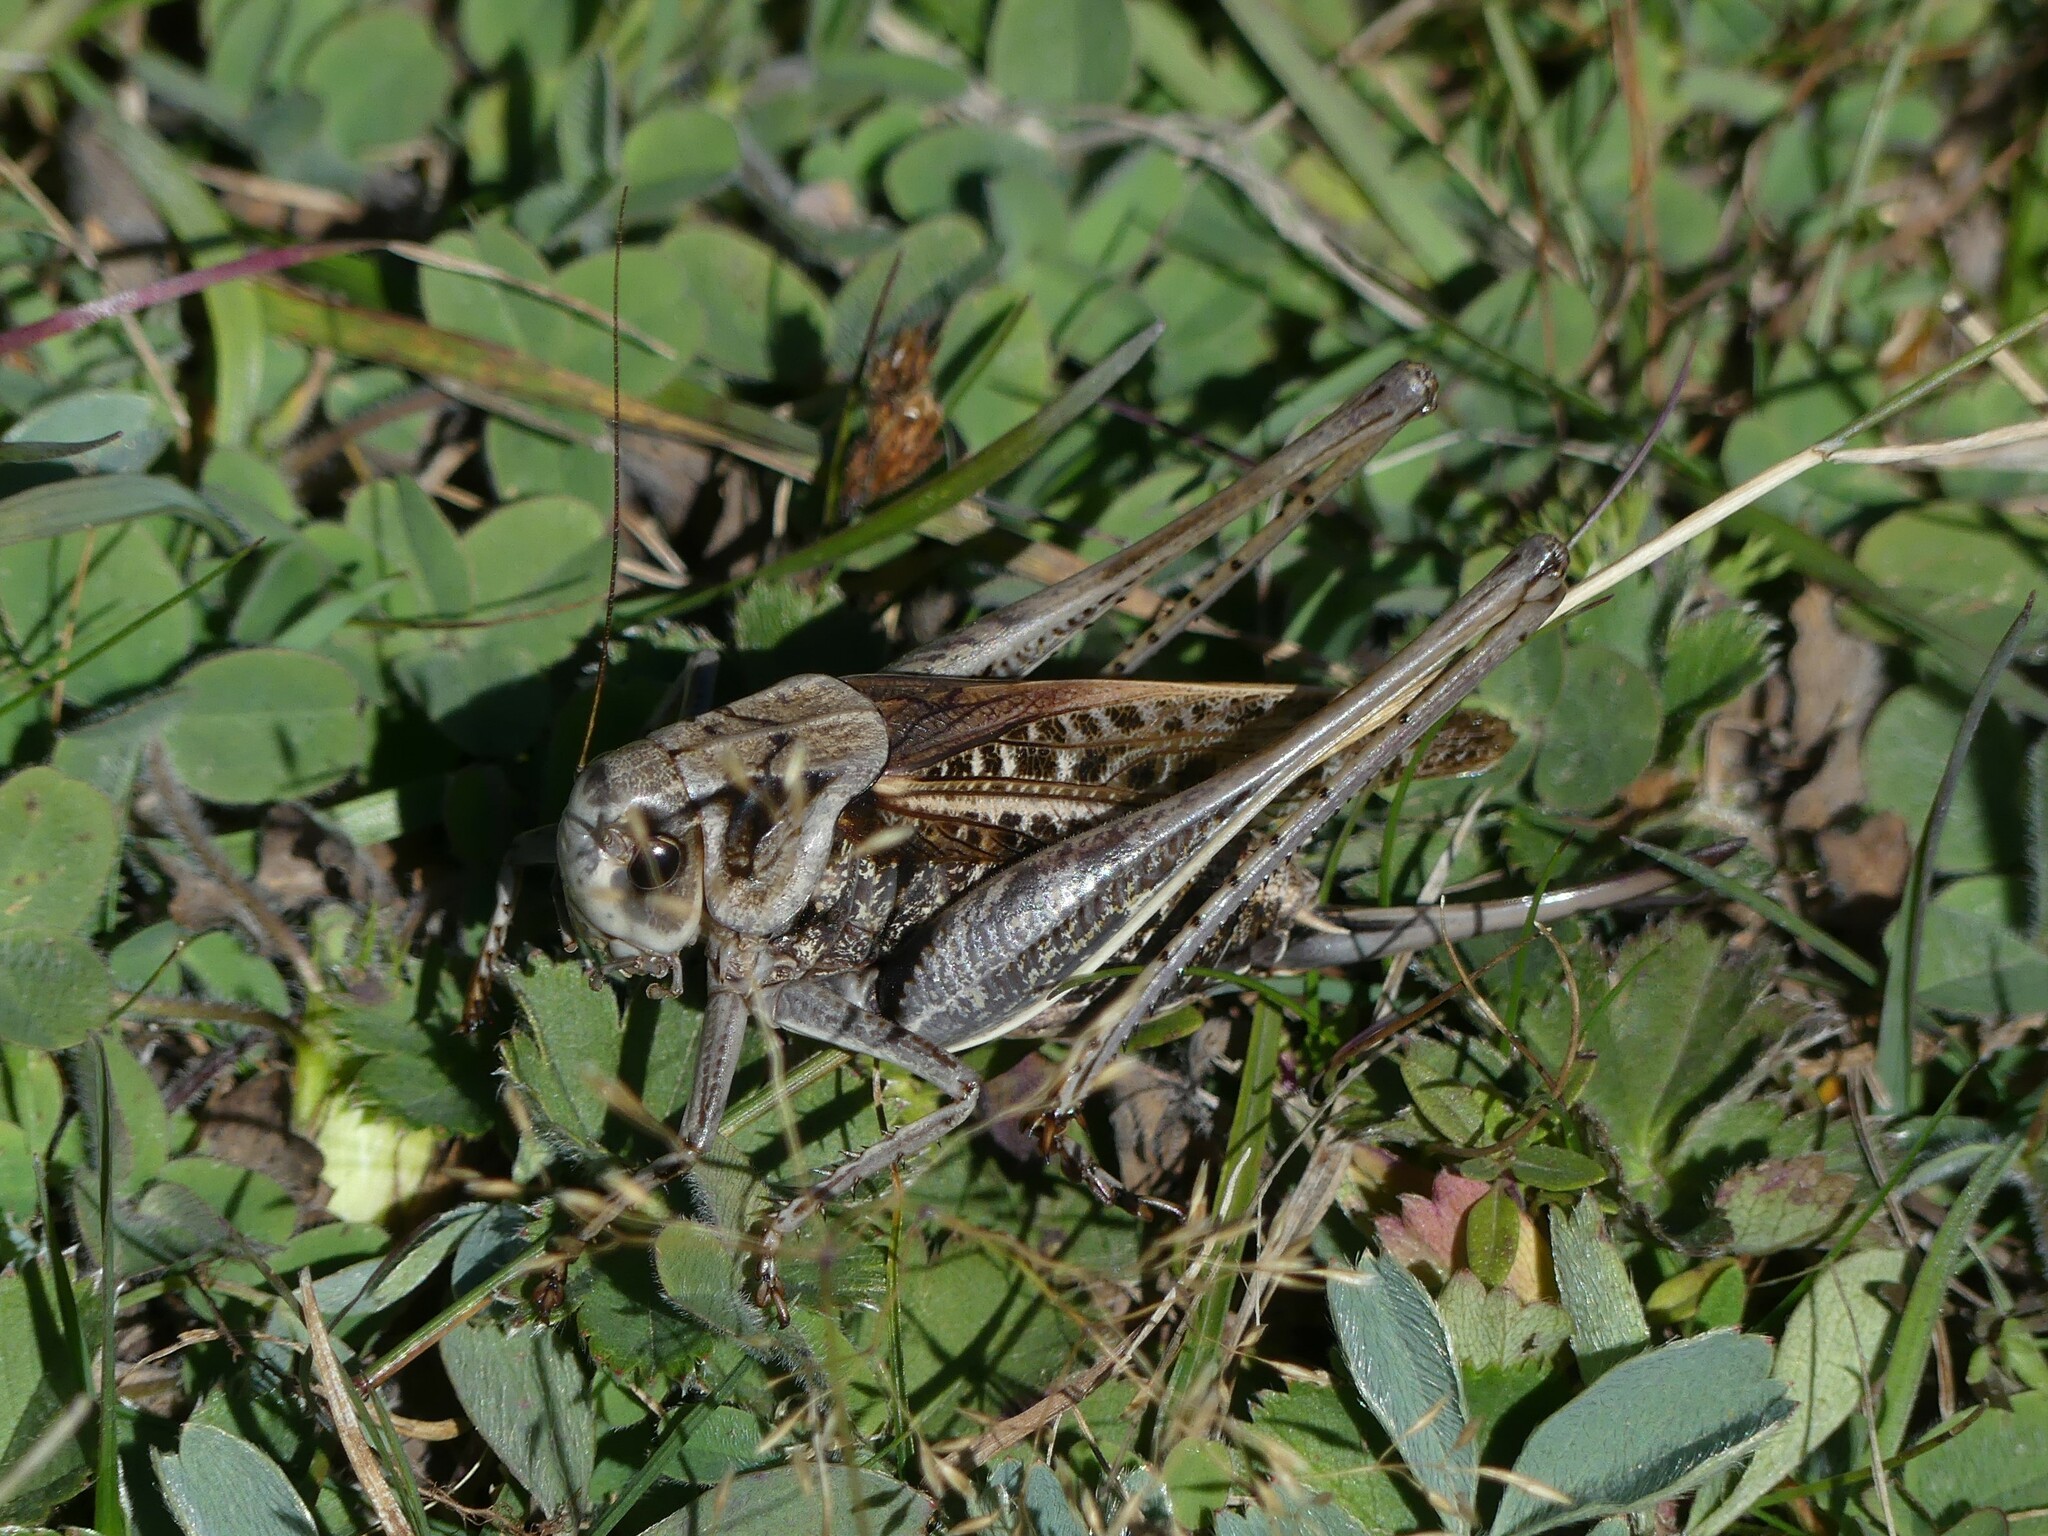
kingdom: Animalia
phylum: Arthropoda
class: Insecta
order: Orthoptera
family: Tettigoniidae
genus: Decticus
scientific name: Decticus verrucivorus
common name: Wart-biter
